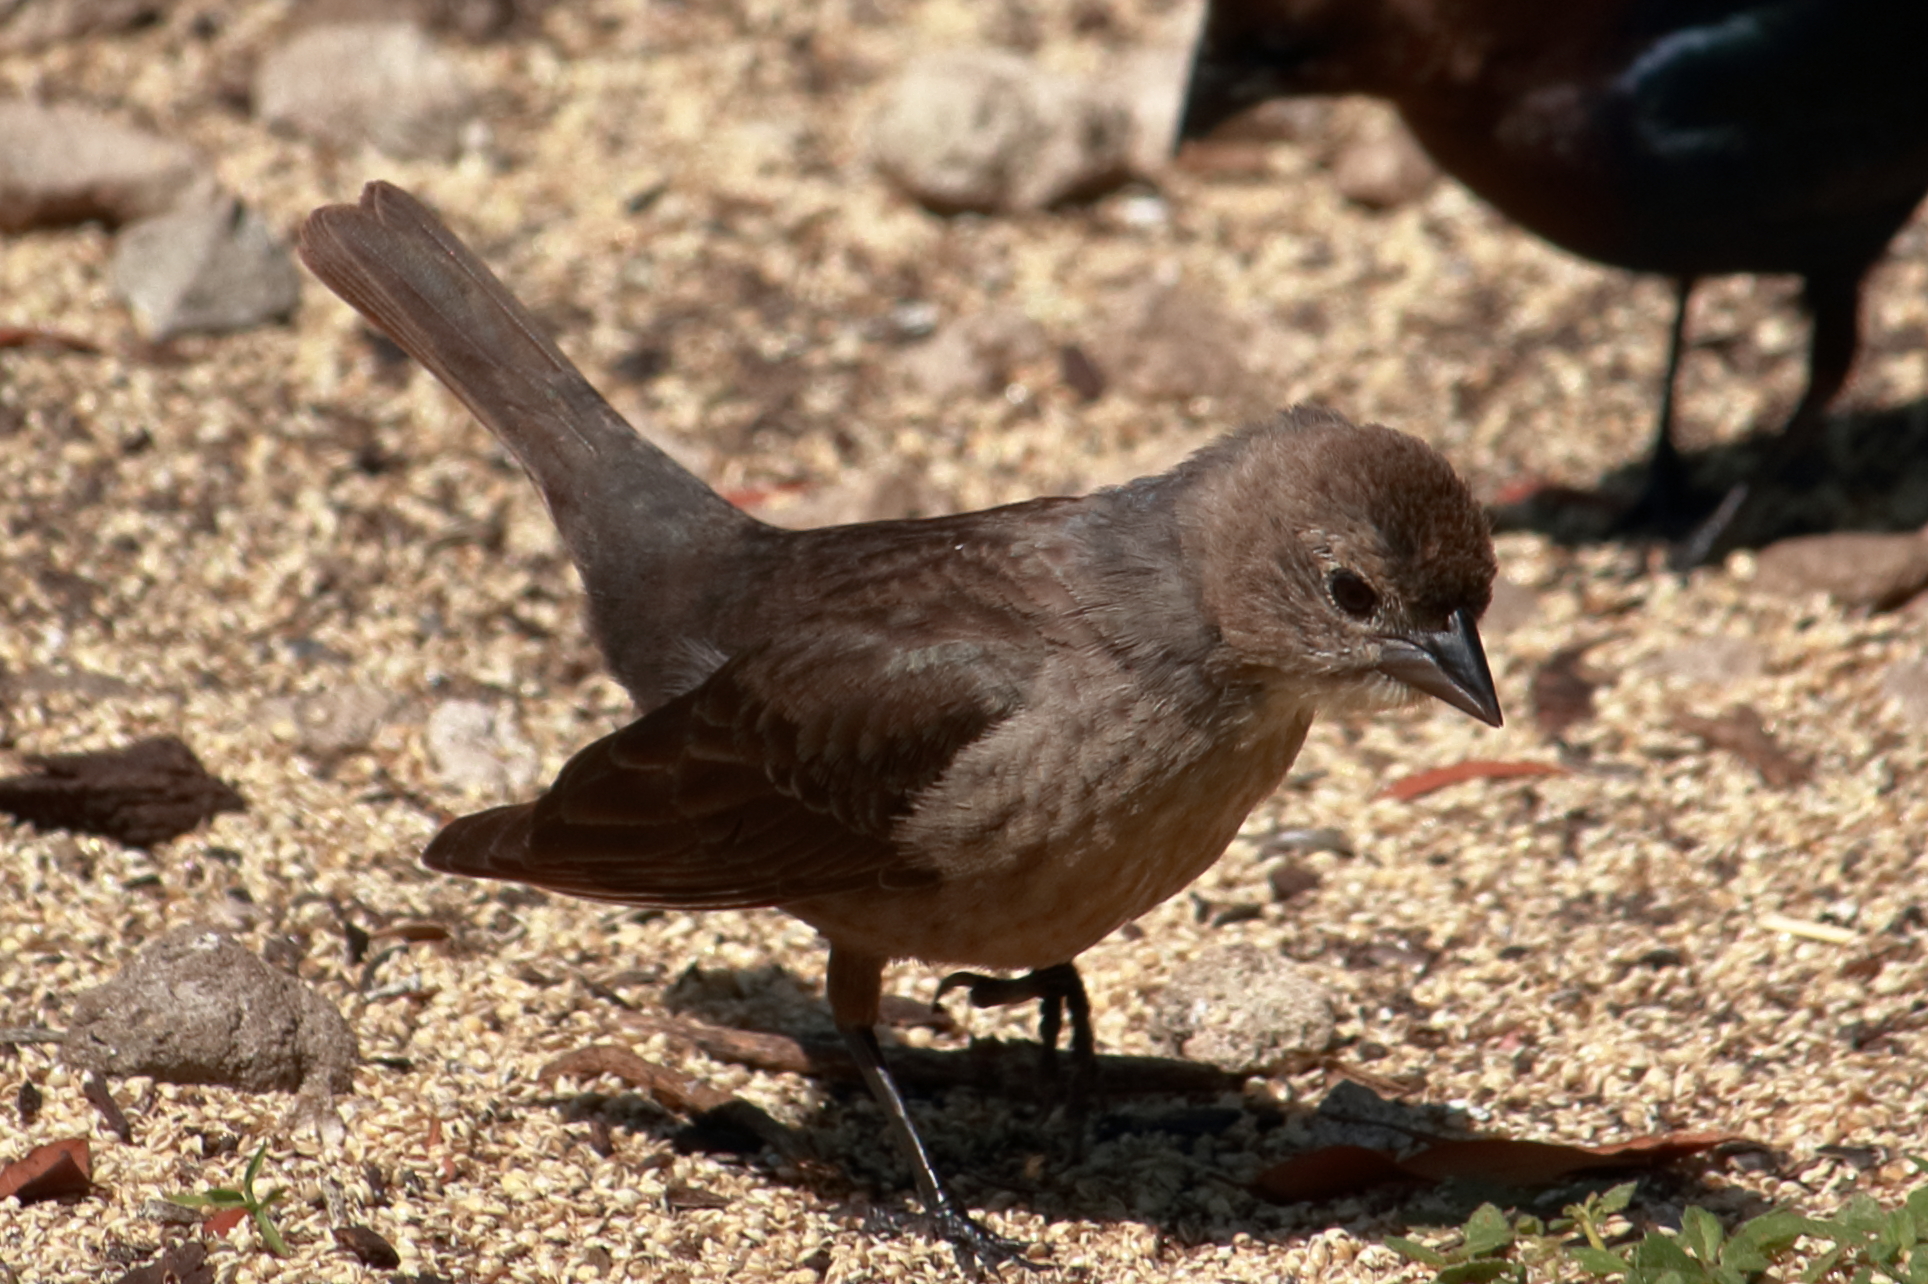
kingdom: Animalia
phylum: Chordata
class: Aves
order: Passeriformes
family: Icteridae
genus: Molothrus
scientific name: Molothrus ater
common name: Brown-headed cowbird
